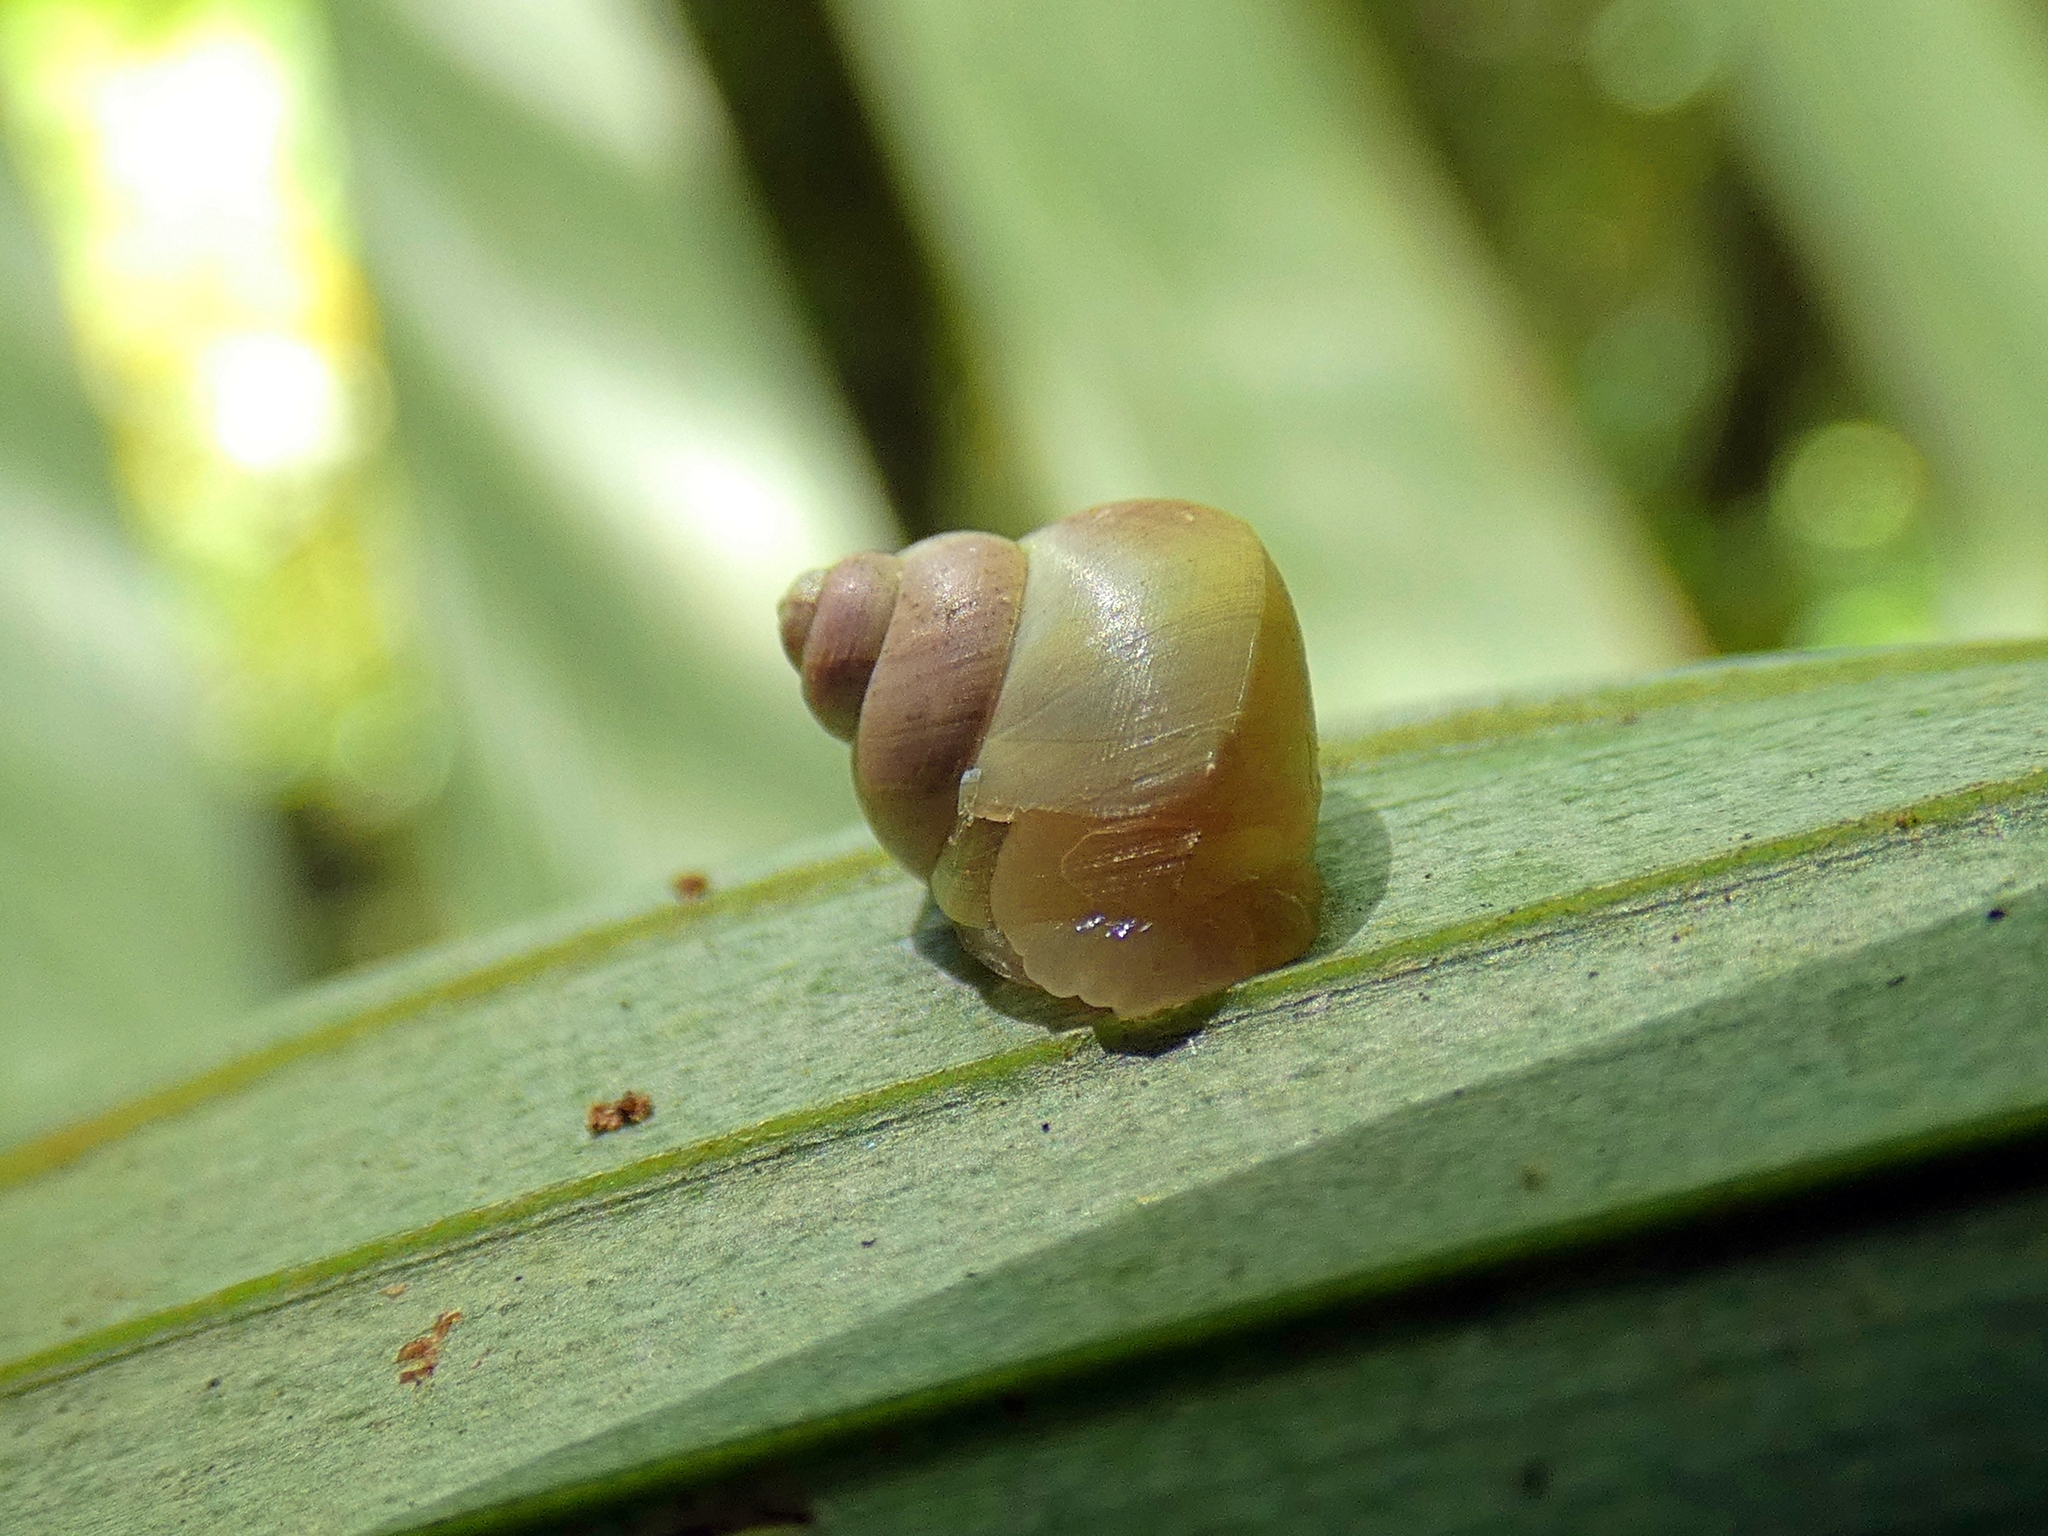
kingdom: Animalia
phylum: Mollusca
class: Gastropoda
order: Architaenioglossa
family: Cyclophoridae
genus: Leptopoma
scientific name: Leptopoma perlucidum
